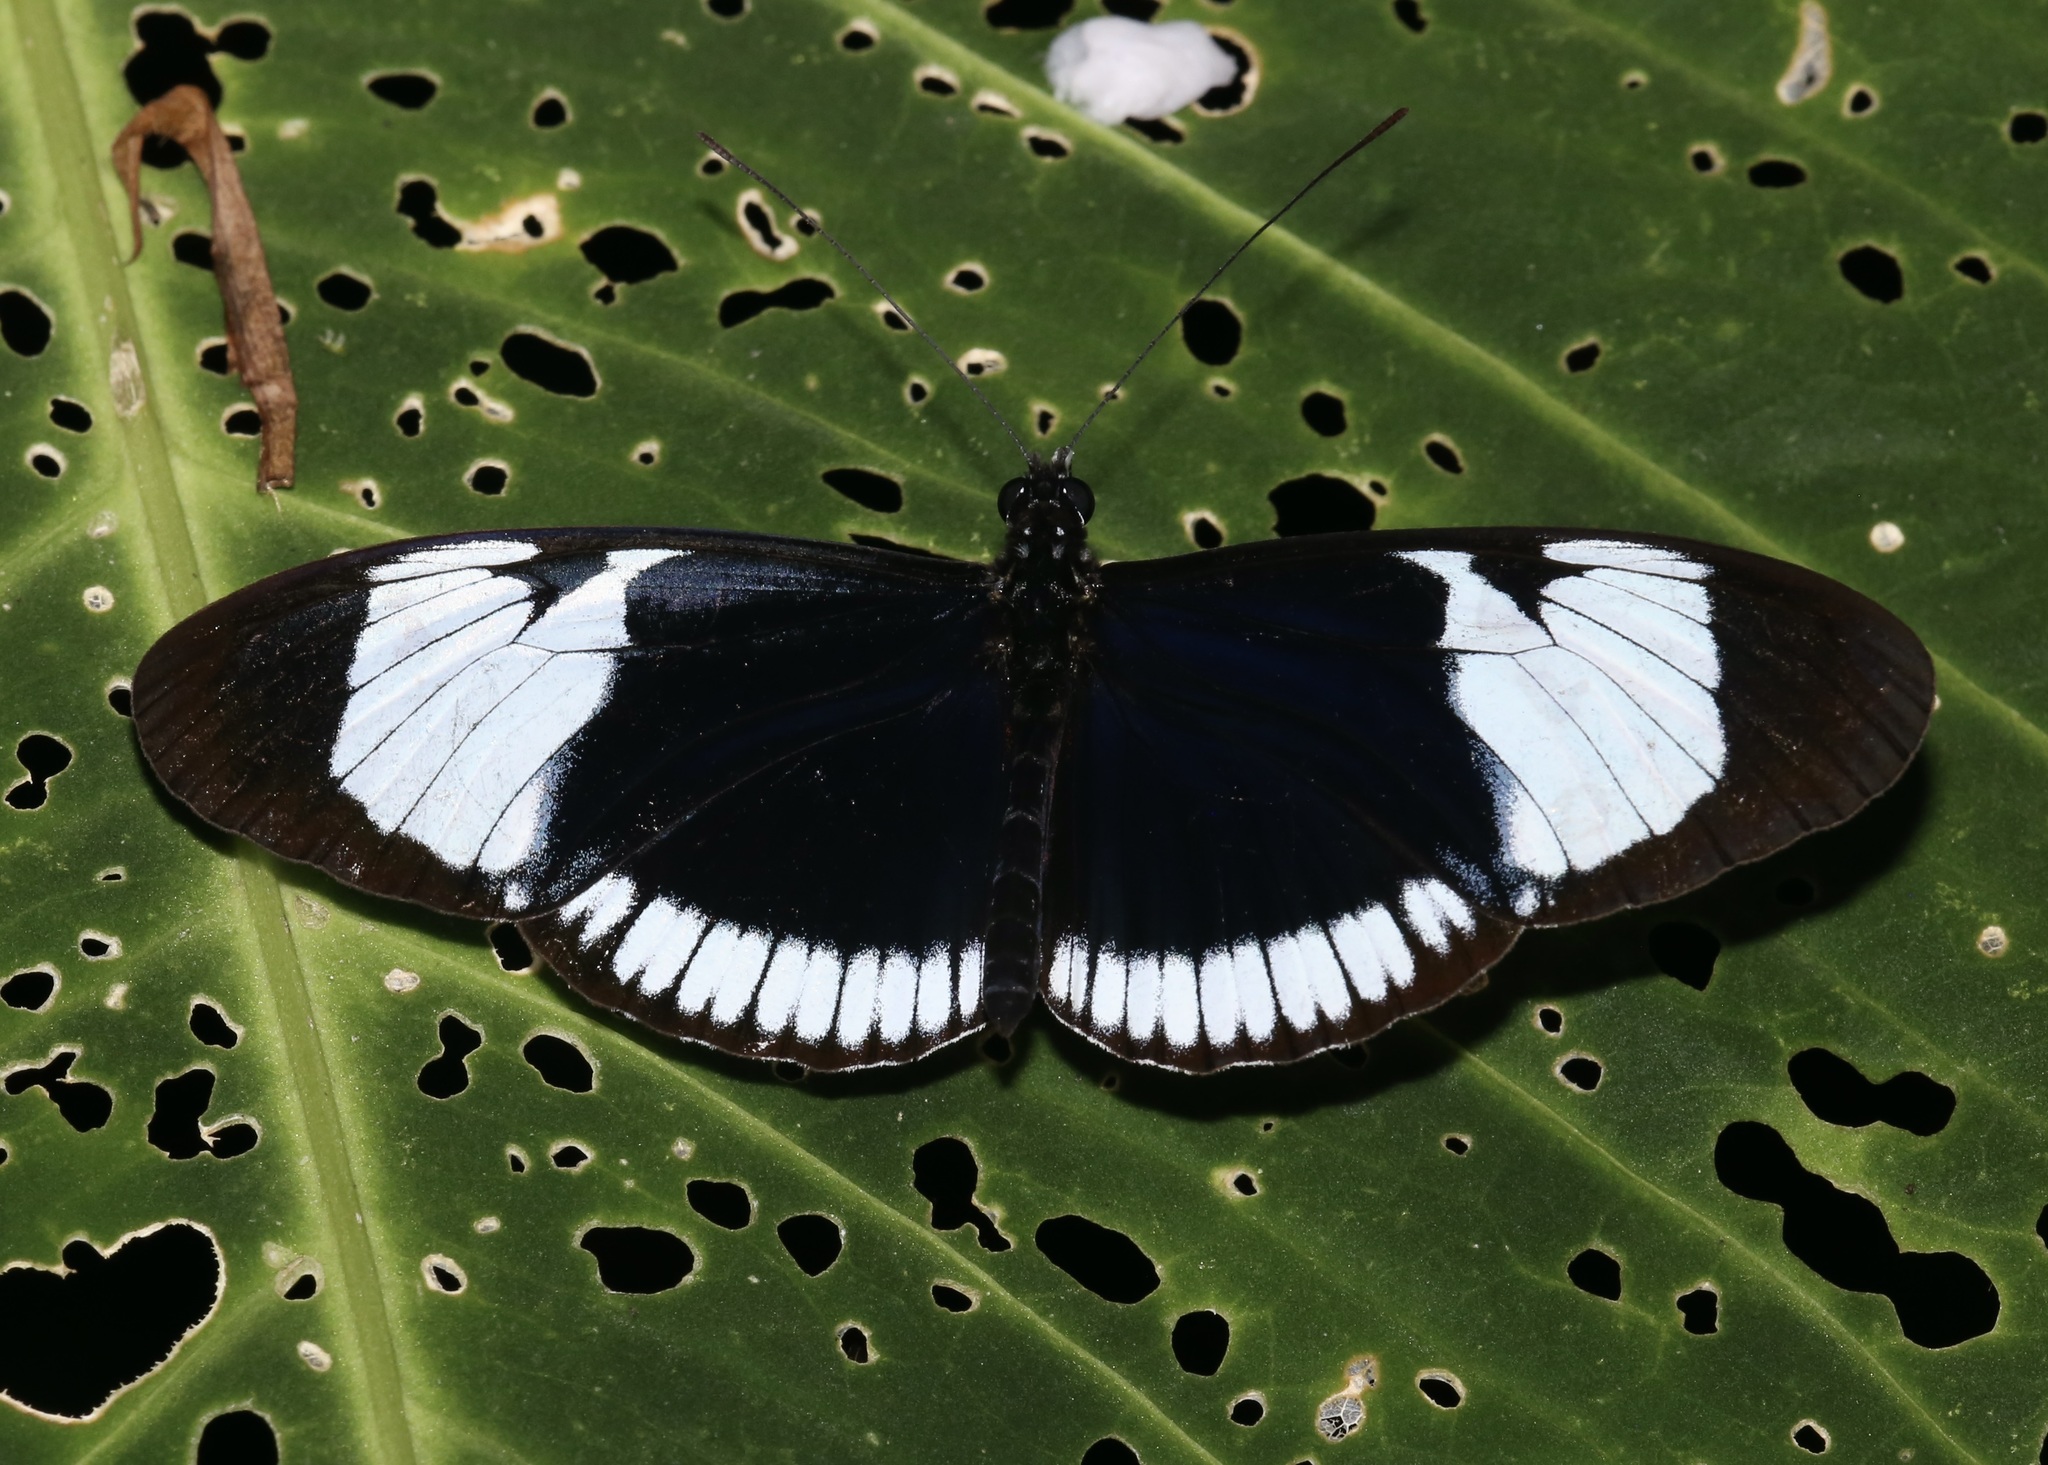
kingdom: Animalia
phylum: Arthropoda
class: Insecta
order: Lepidoptera
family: Nymphalidae
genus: Heliconius
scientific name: Heliconius cydno
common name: Cydno longwing
